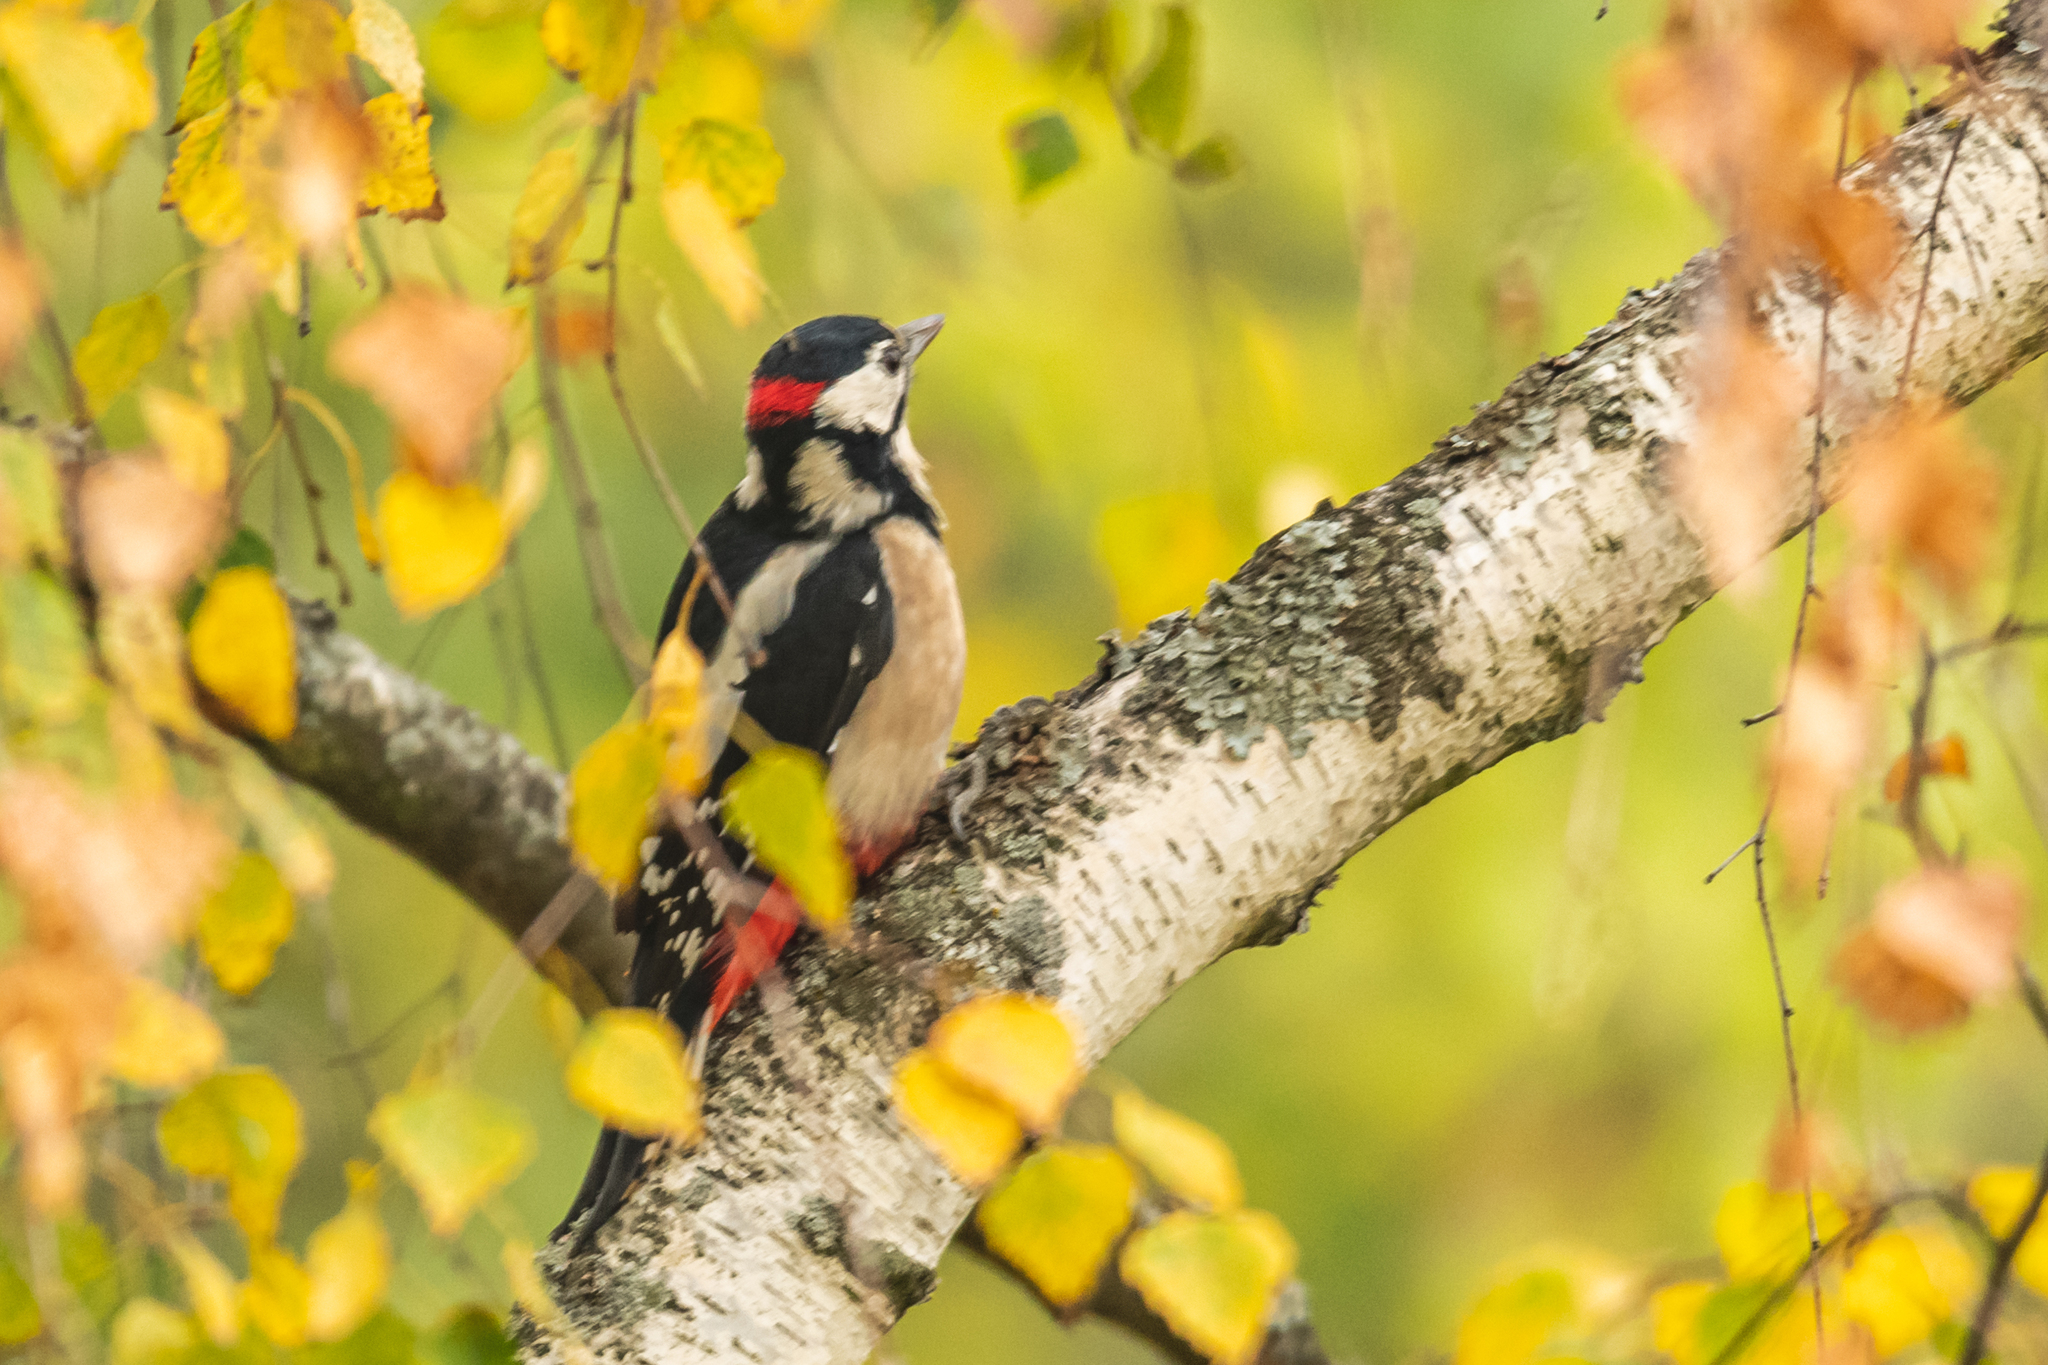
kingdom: Animalia
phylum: Chordata
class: Aves
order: Piciformes
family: Picidae
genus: Dendrocopos
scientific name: Dendrocopos major
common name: Great spotted woodpecker
